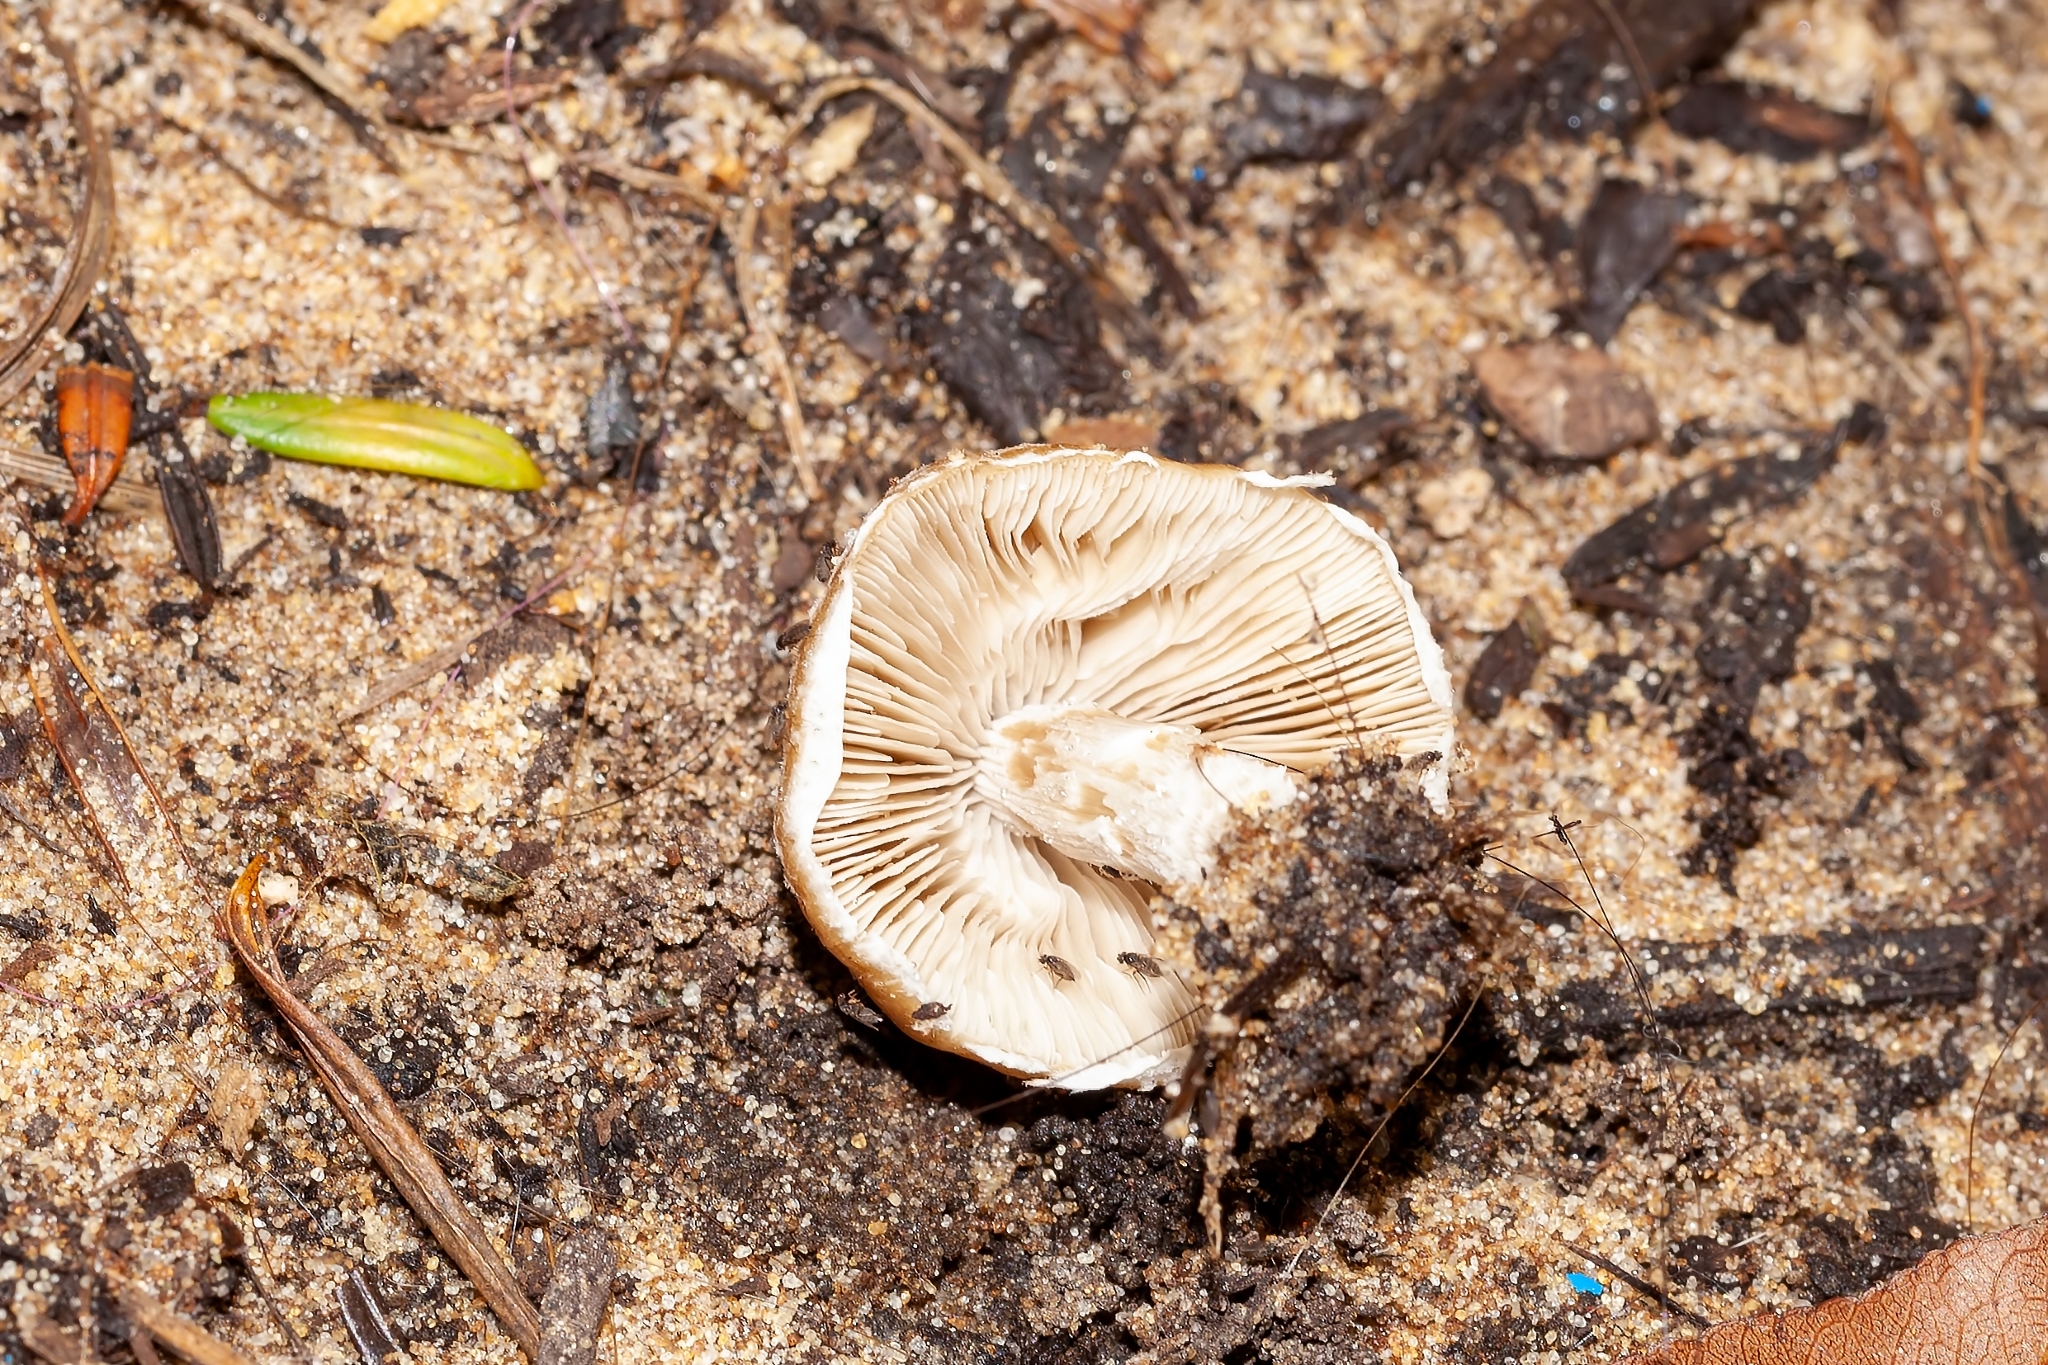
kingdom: Fungi
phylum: Basidiomycota
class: Agaricomycetes
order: Agaricales
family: Amanitaceae
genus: Amanita
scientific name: Amanita rubescens
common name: Blusher
